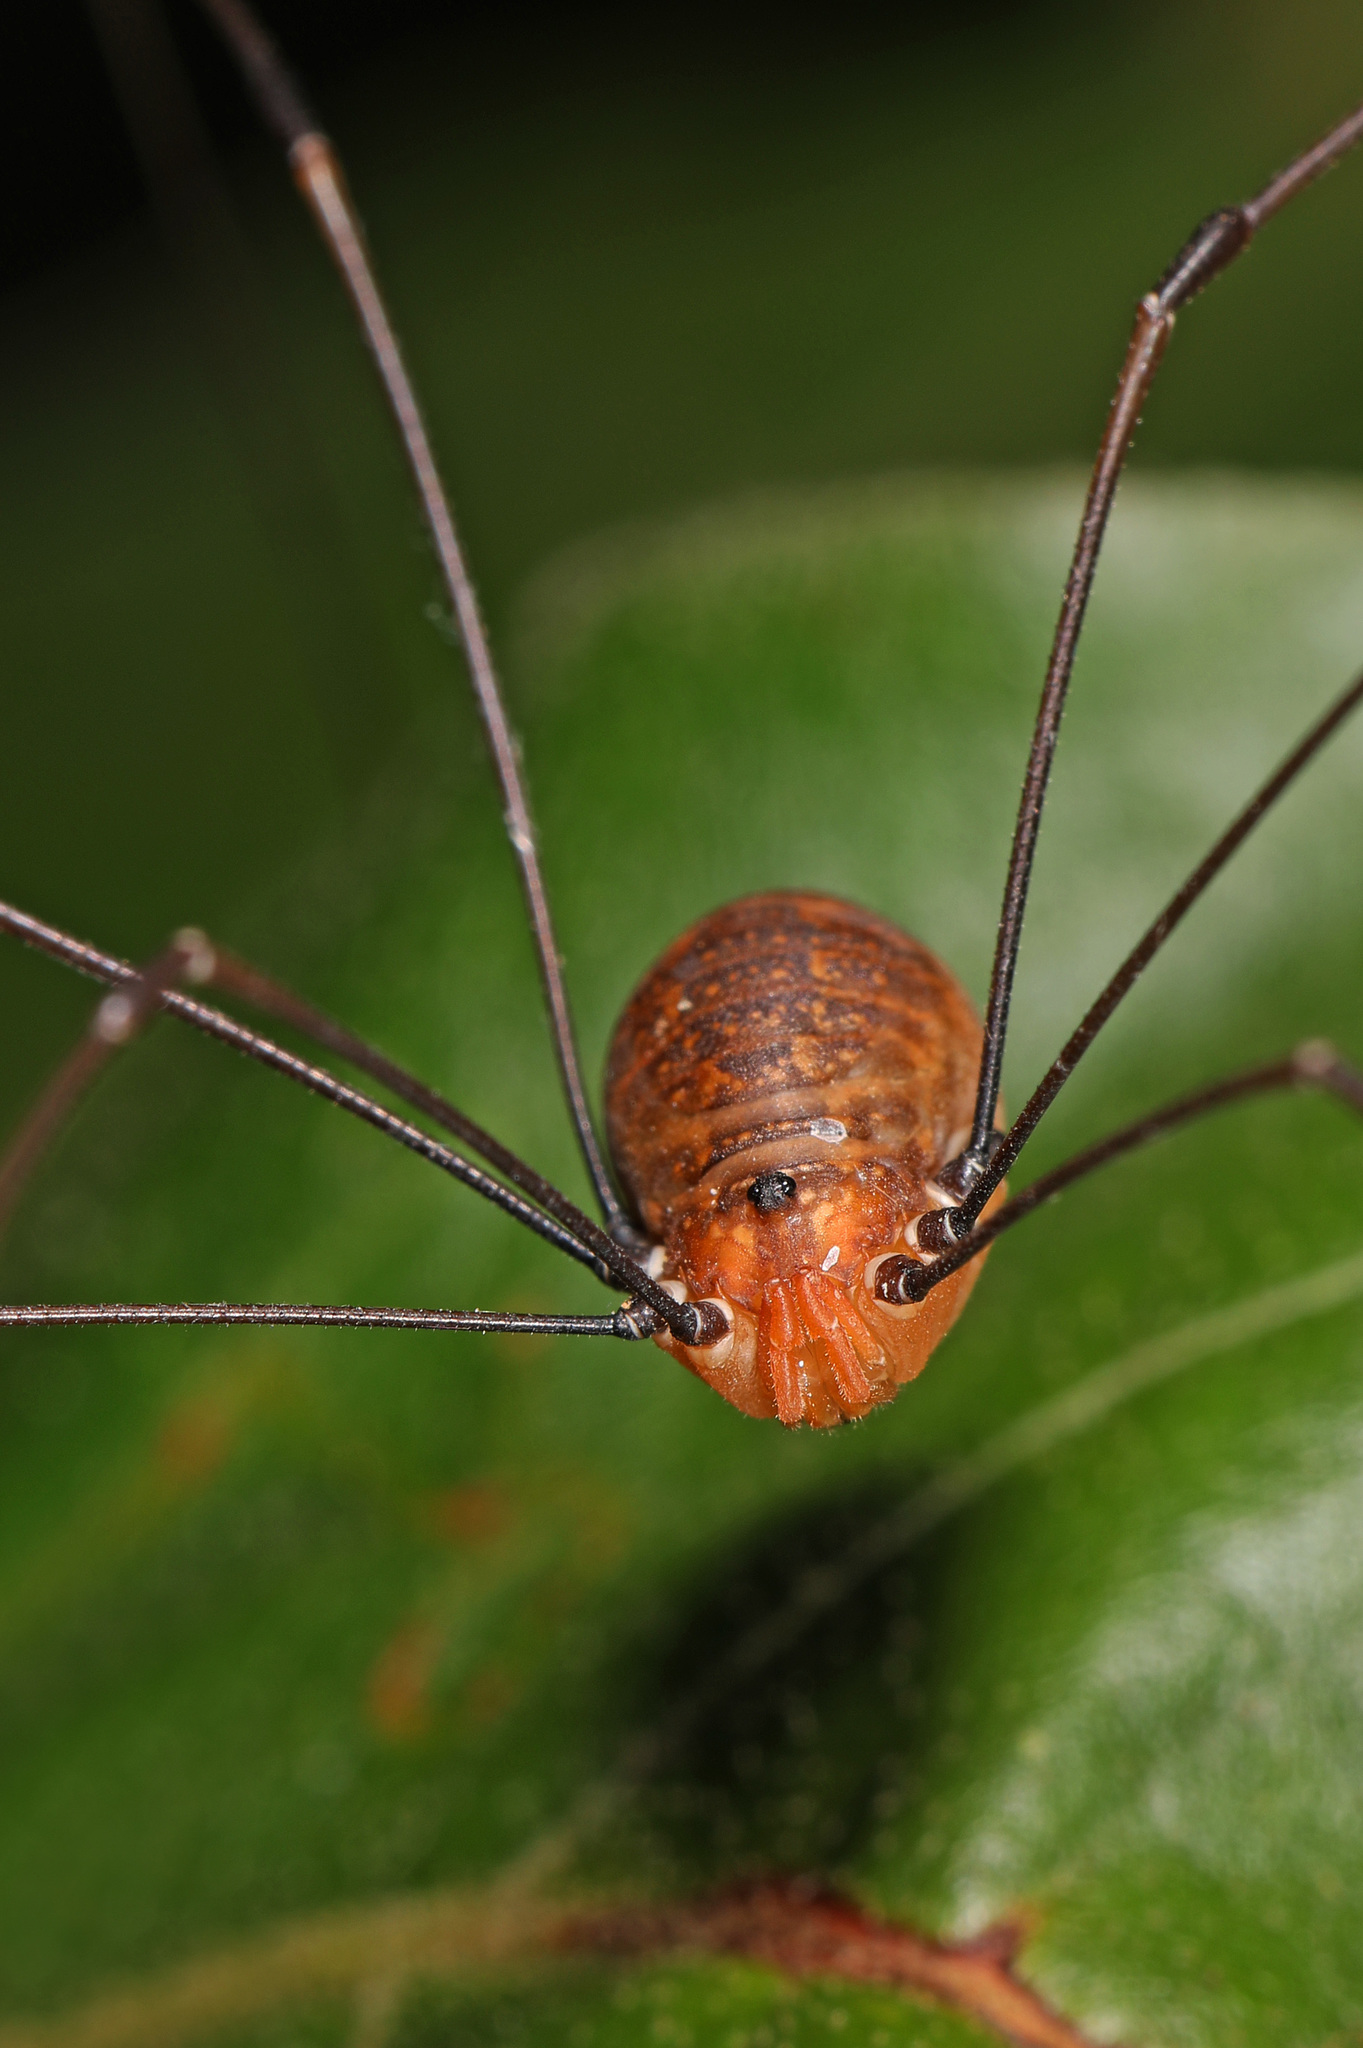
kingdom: Animalia
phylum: Arthropoda
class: Arachnida
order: Opiliones
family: Sclerosomatidae
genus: Leiobunum
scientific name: Leiobunum uxorium
